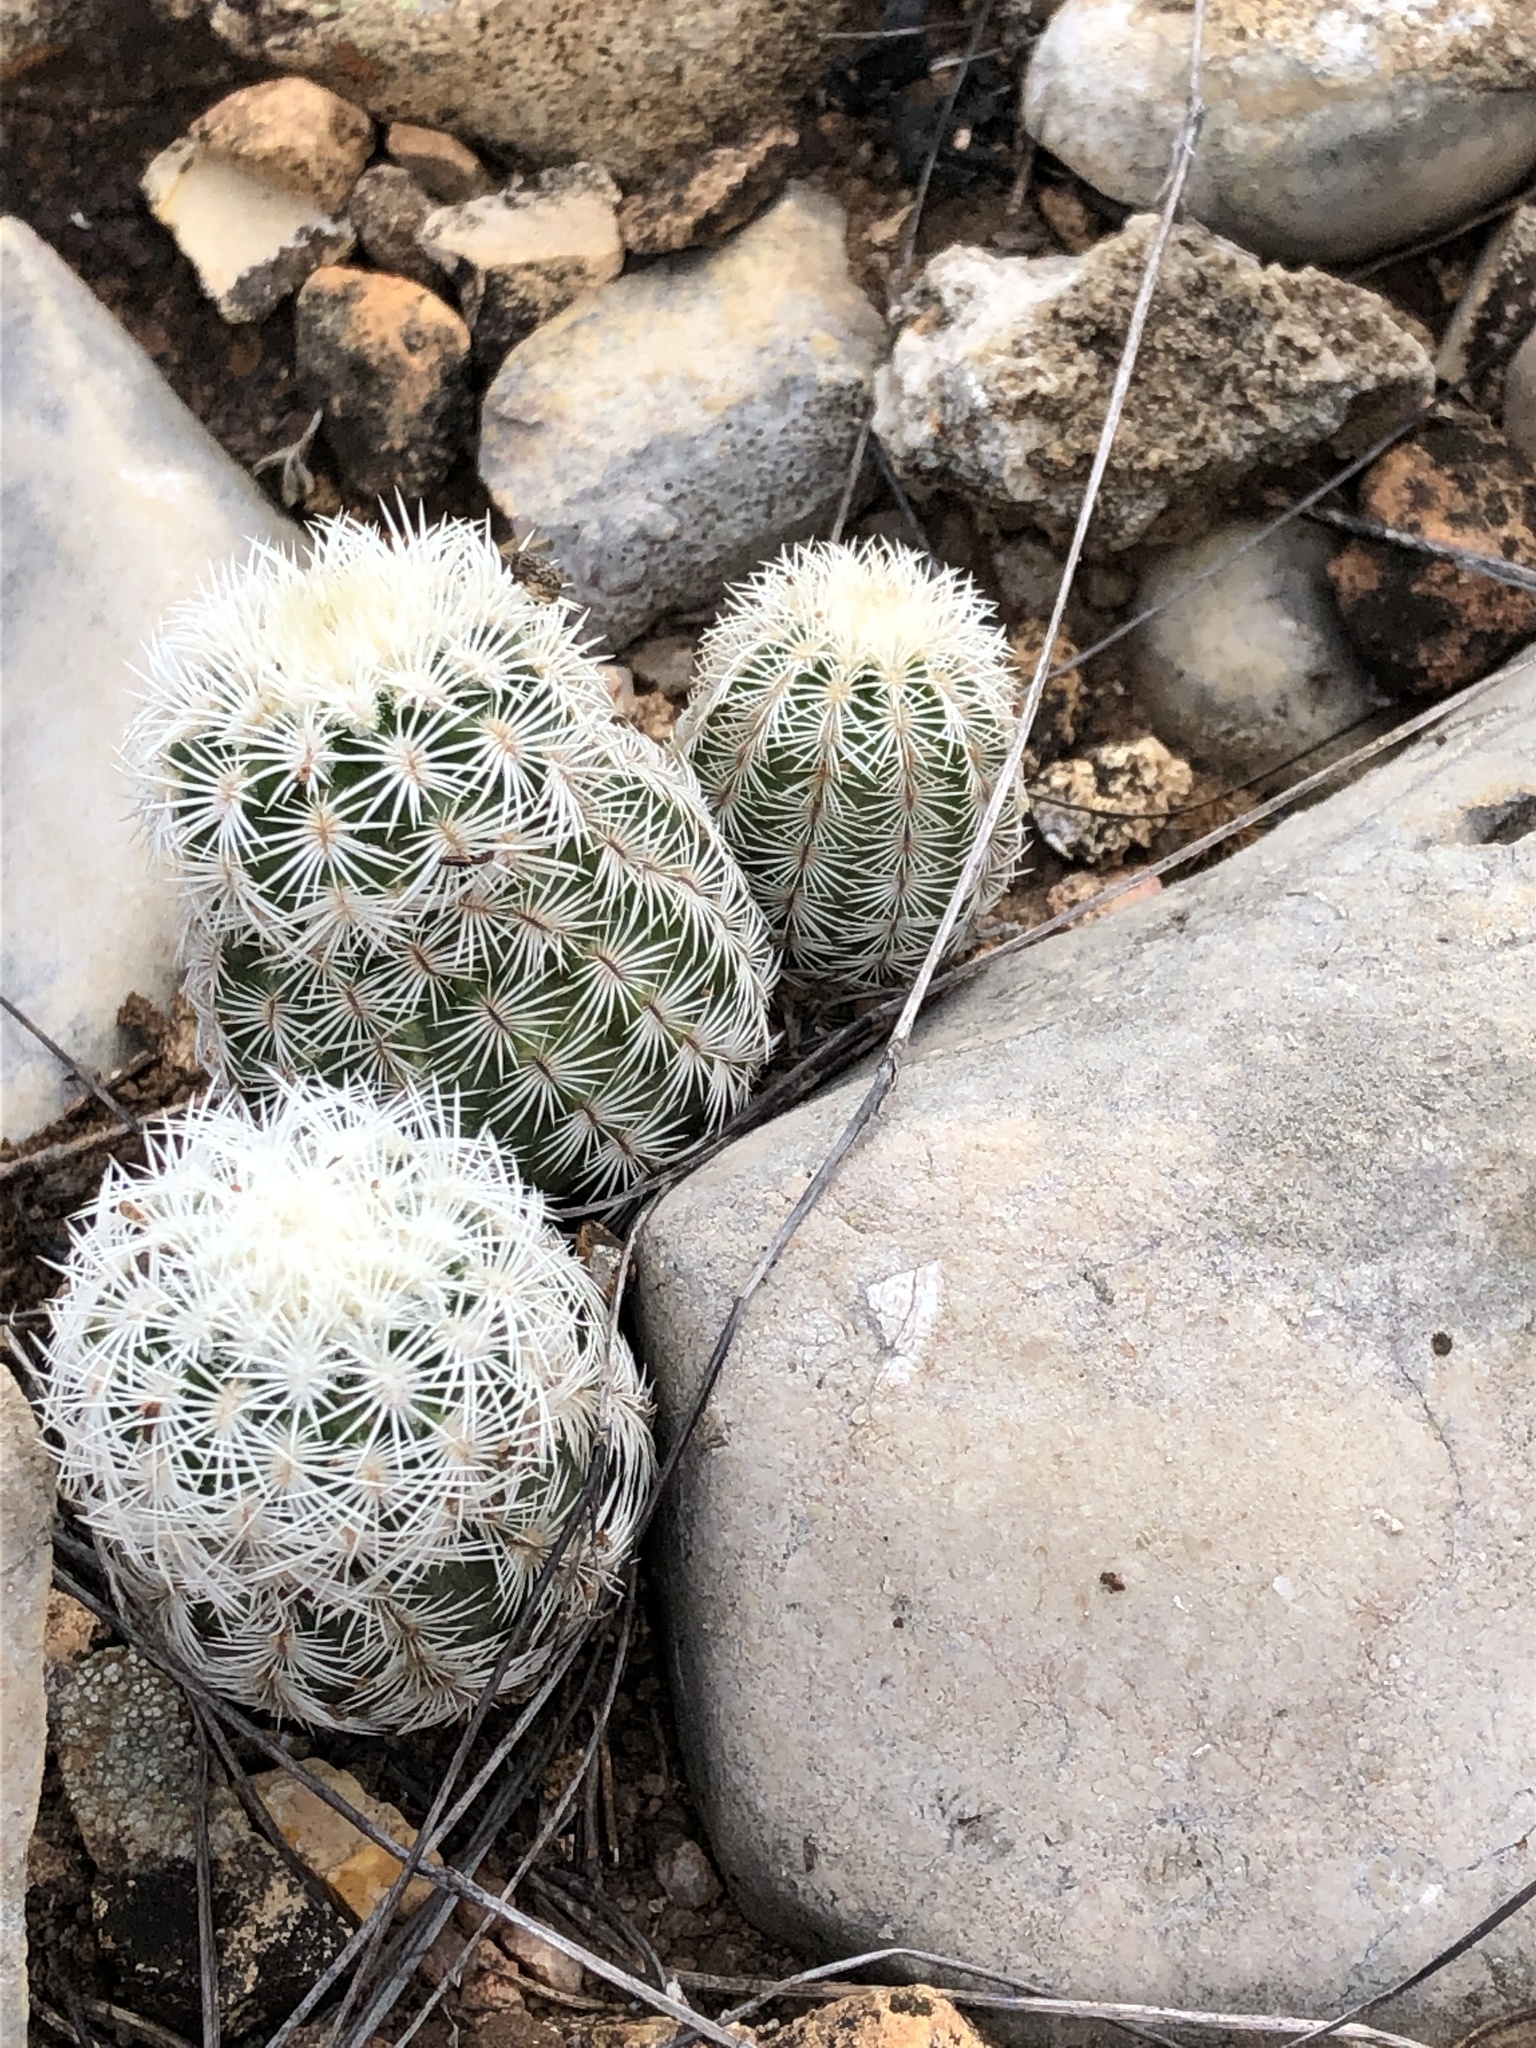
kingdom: Plantae
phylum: Tracheophyta
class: Magnoliopsida
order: Caryophyllales
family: Cactaceae
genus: Echinocereus
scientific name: Echinocereus reichenbachii
